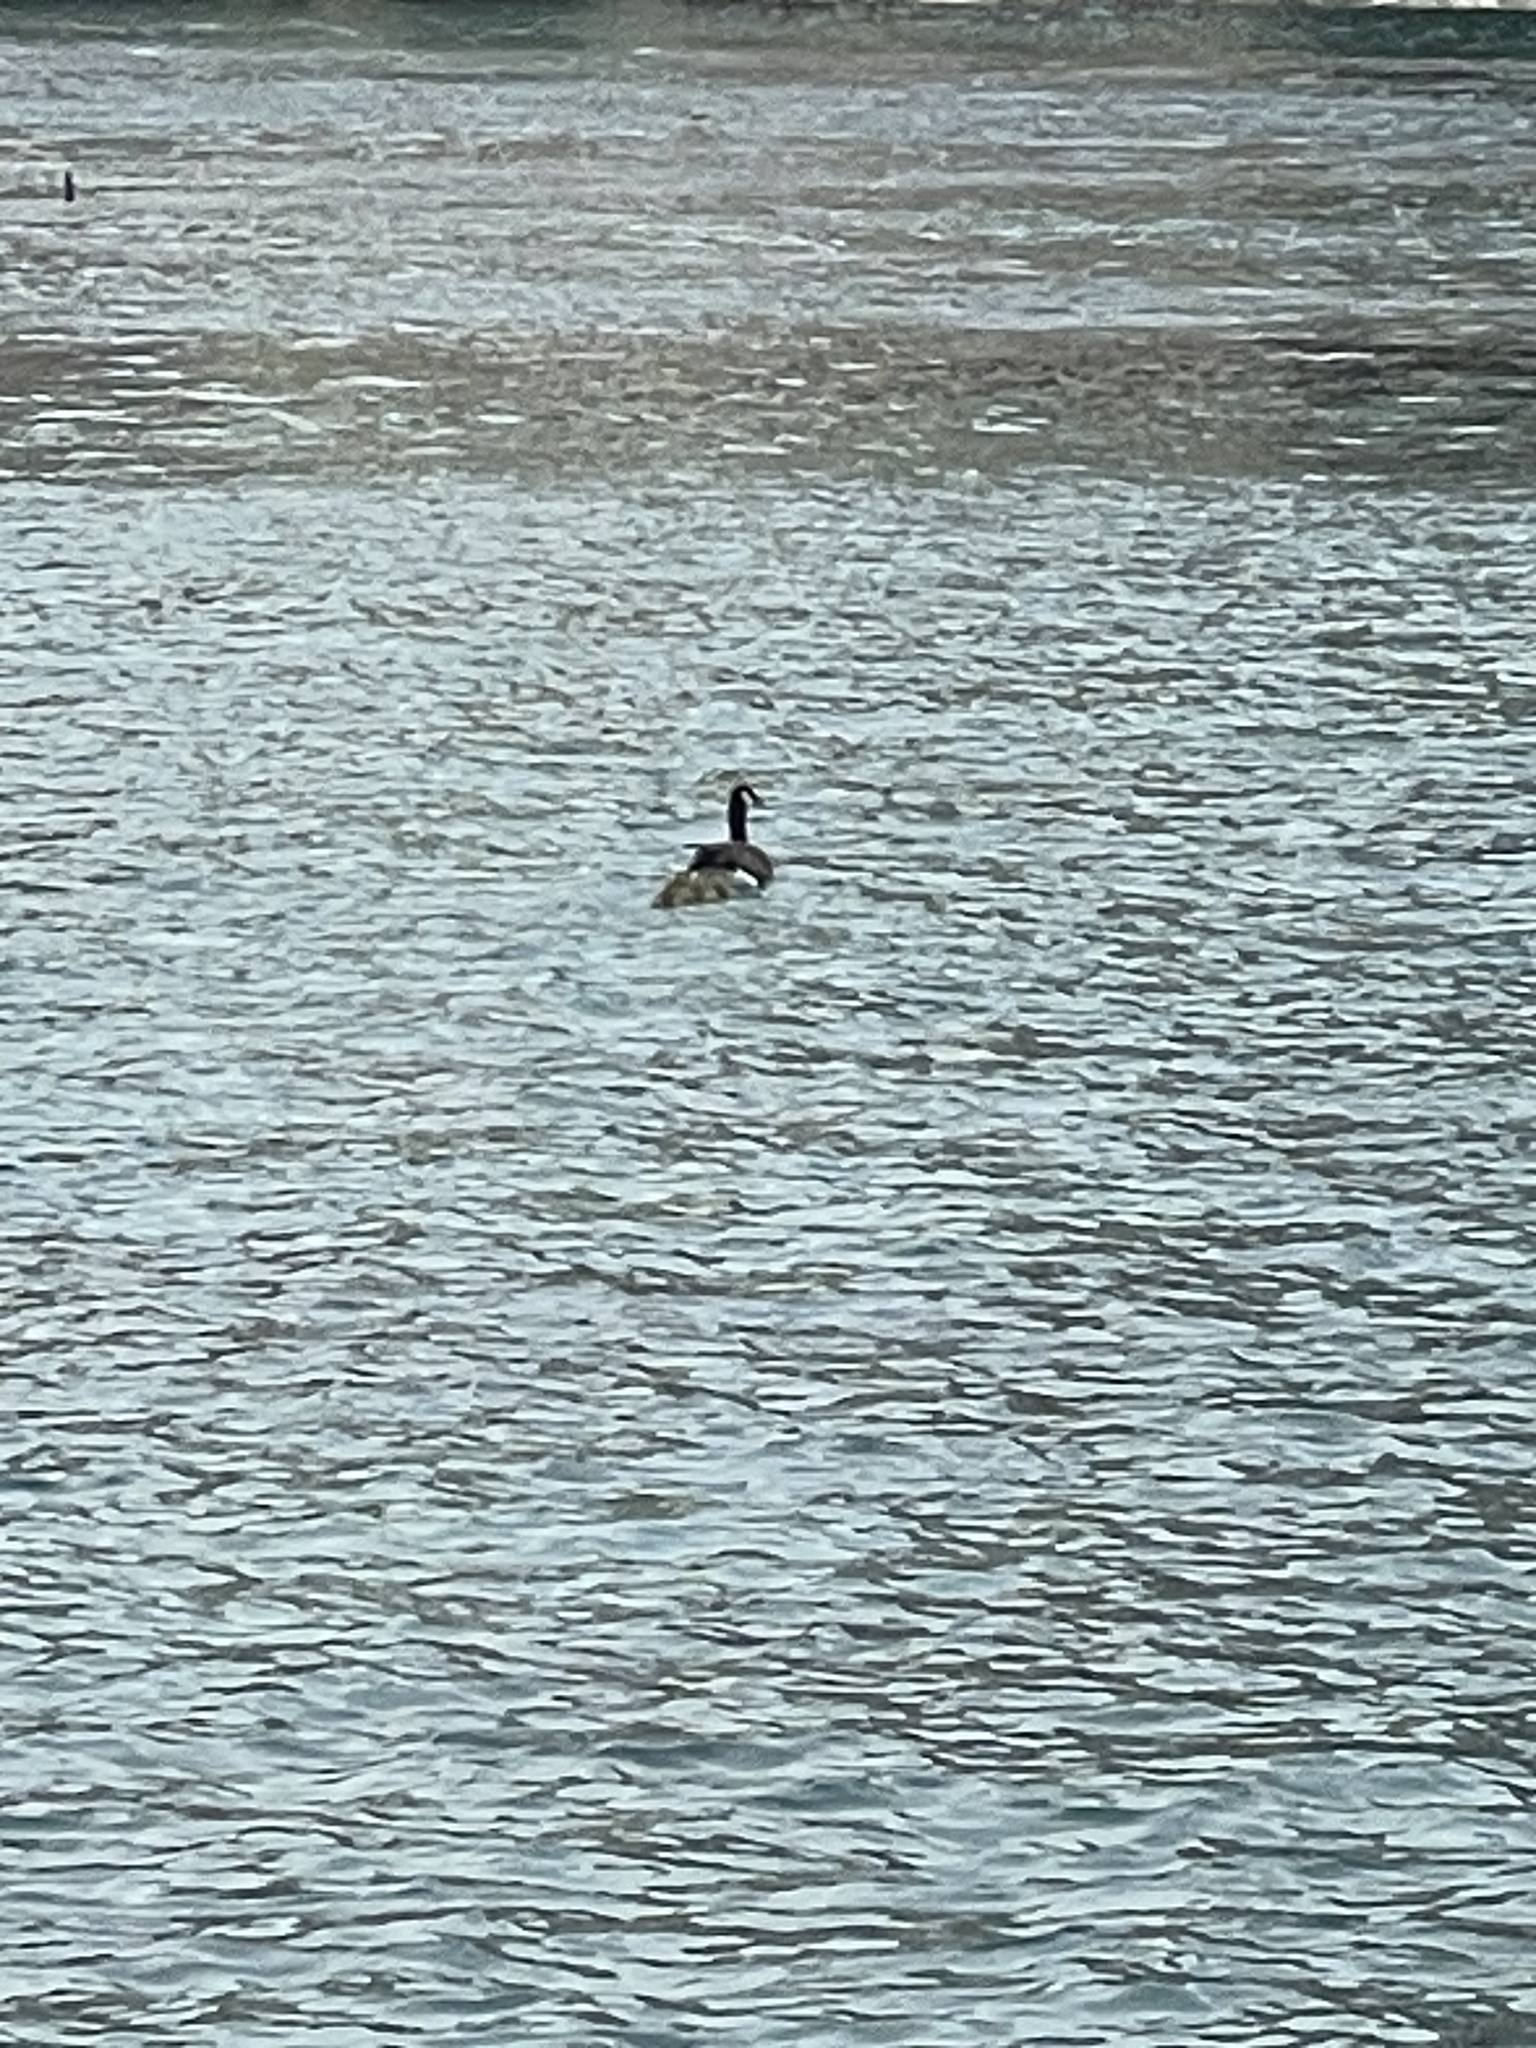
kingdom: Animalia
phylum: Chordata
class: Aves
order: Anseriformes
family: Anatidae
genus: Branta
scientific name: Branta canadensis
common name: Canada goose
